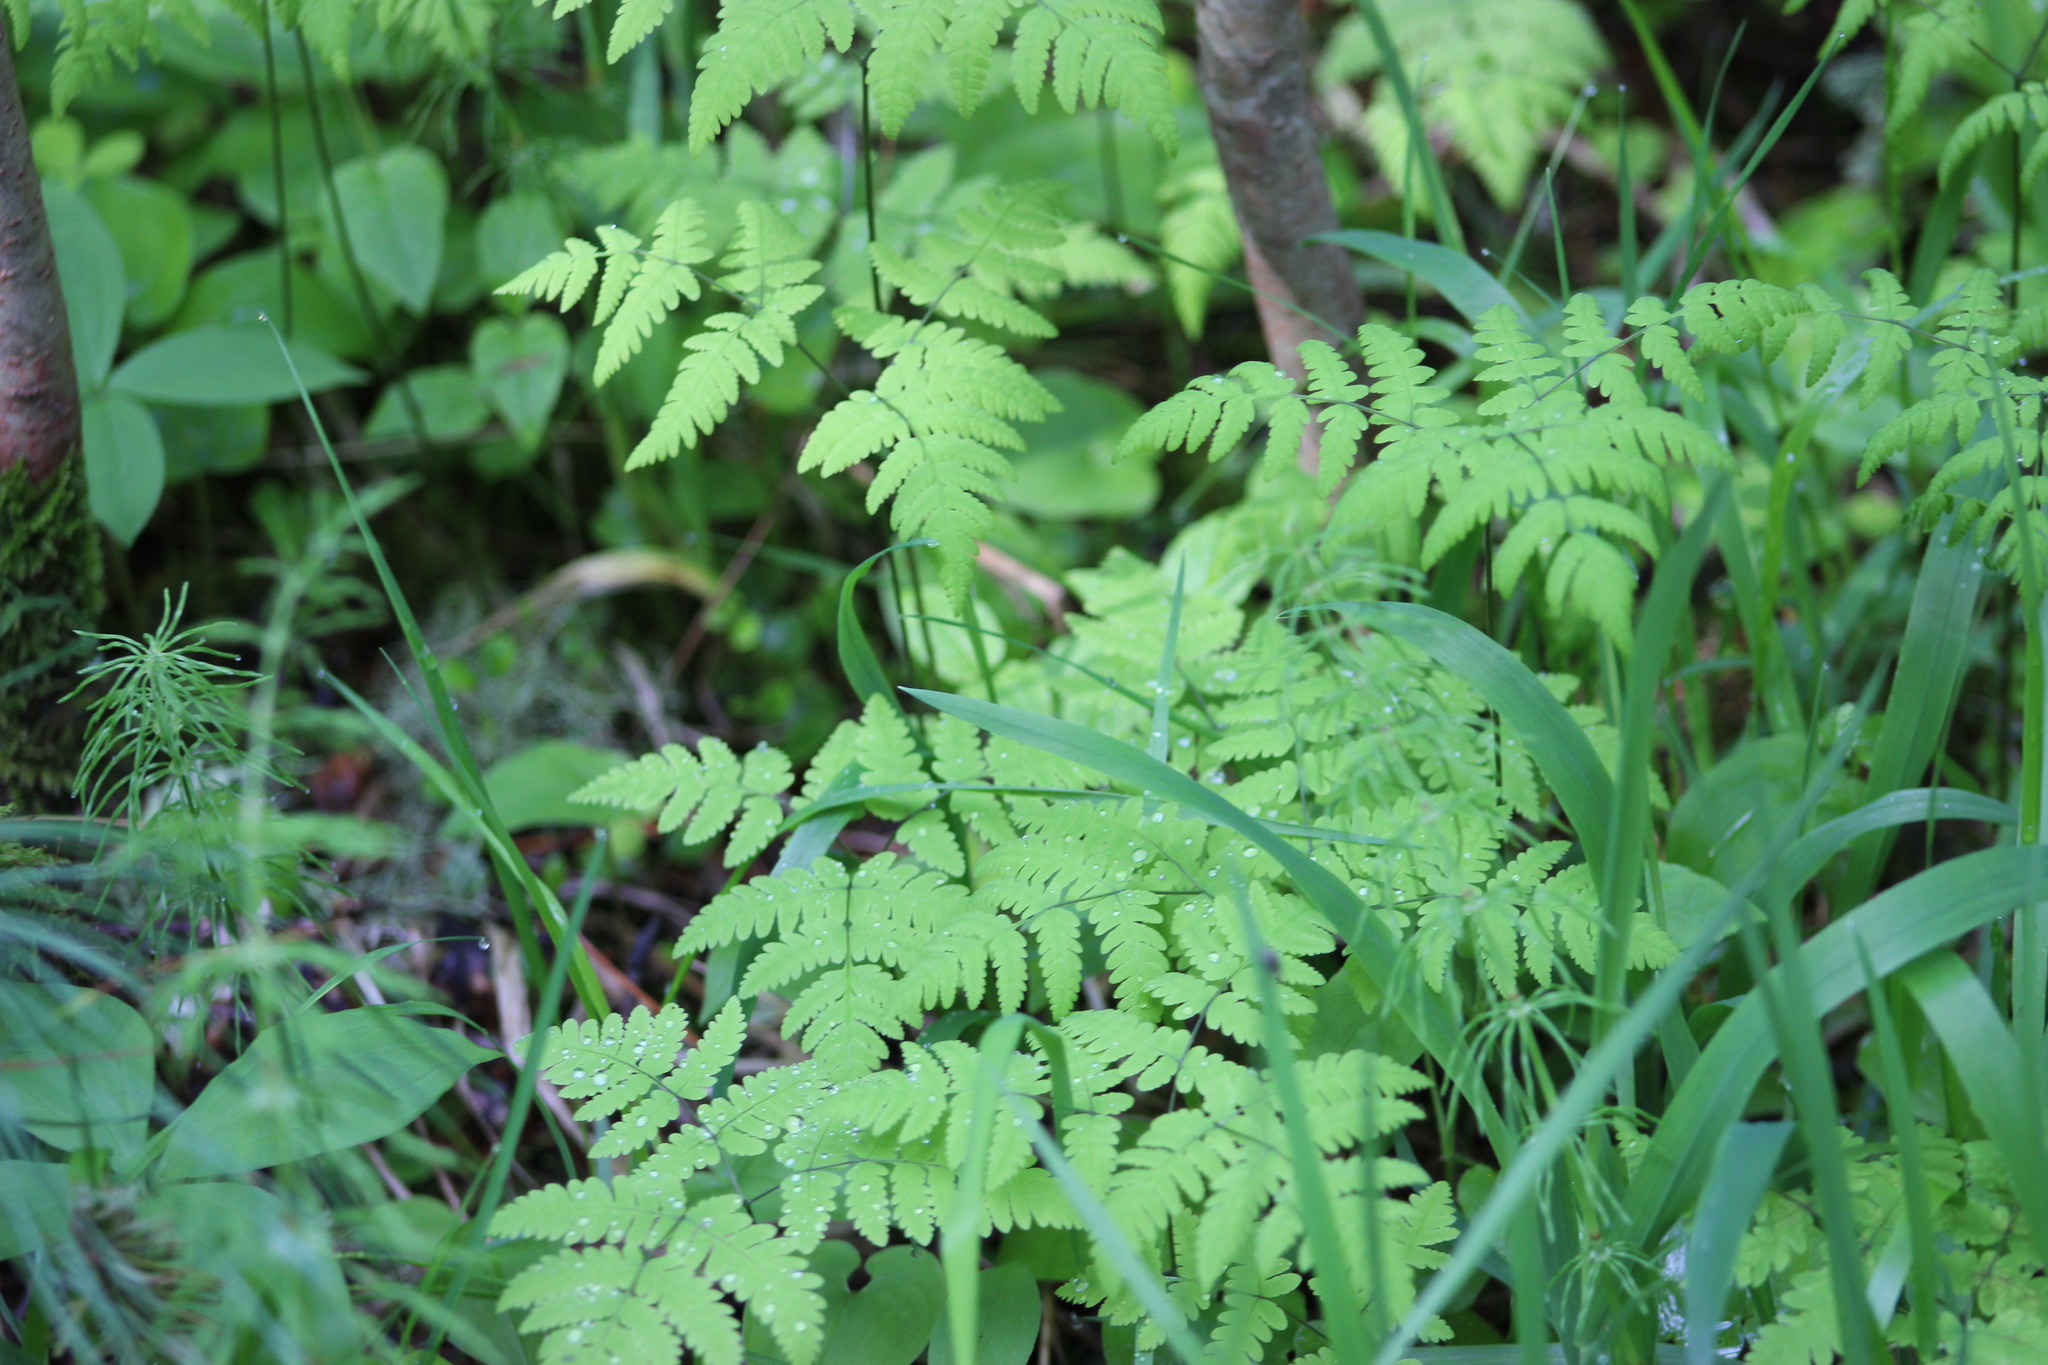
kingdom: Plantae
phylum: Tracheophyta
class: Polypodiopsida
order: Polypodiales
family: Cystopteridaceae
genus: Gymnocarpium
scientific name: Gymnocarpium dryopteris
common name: Oak fern
